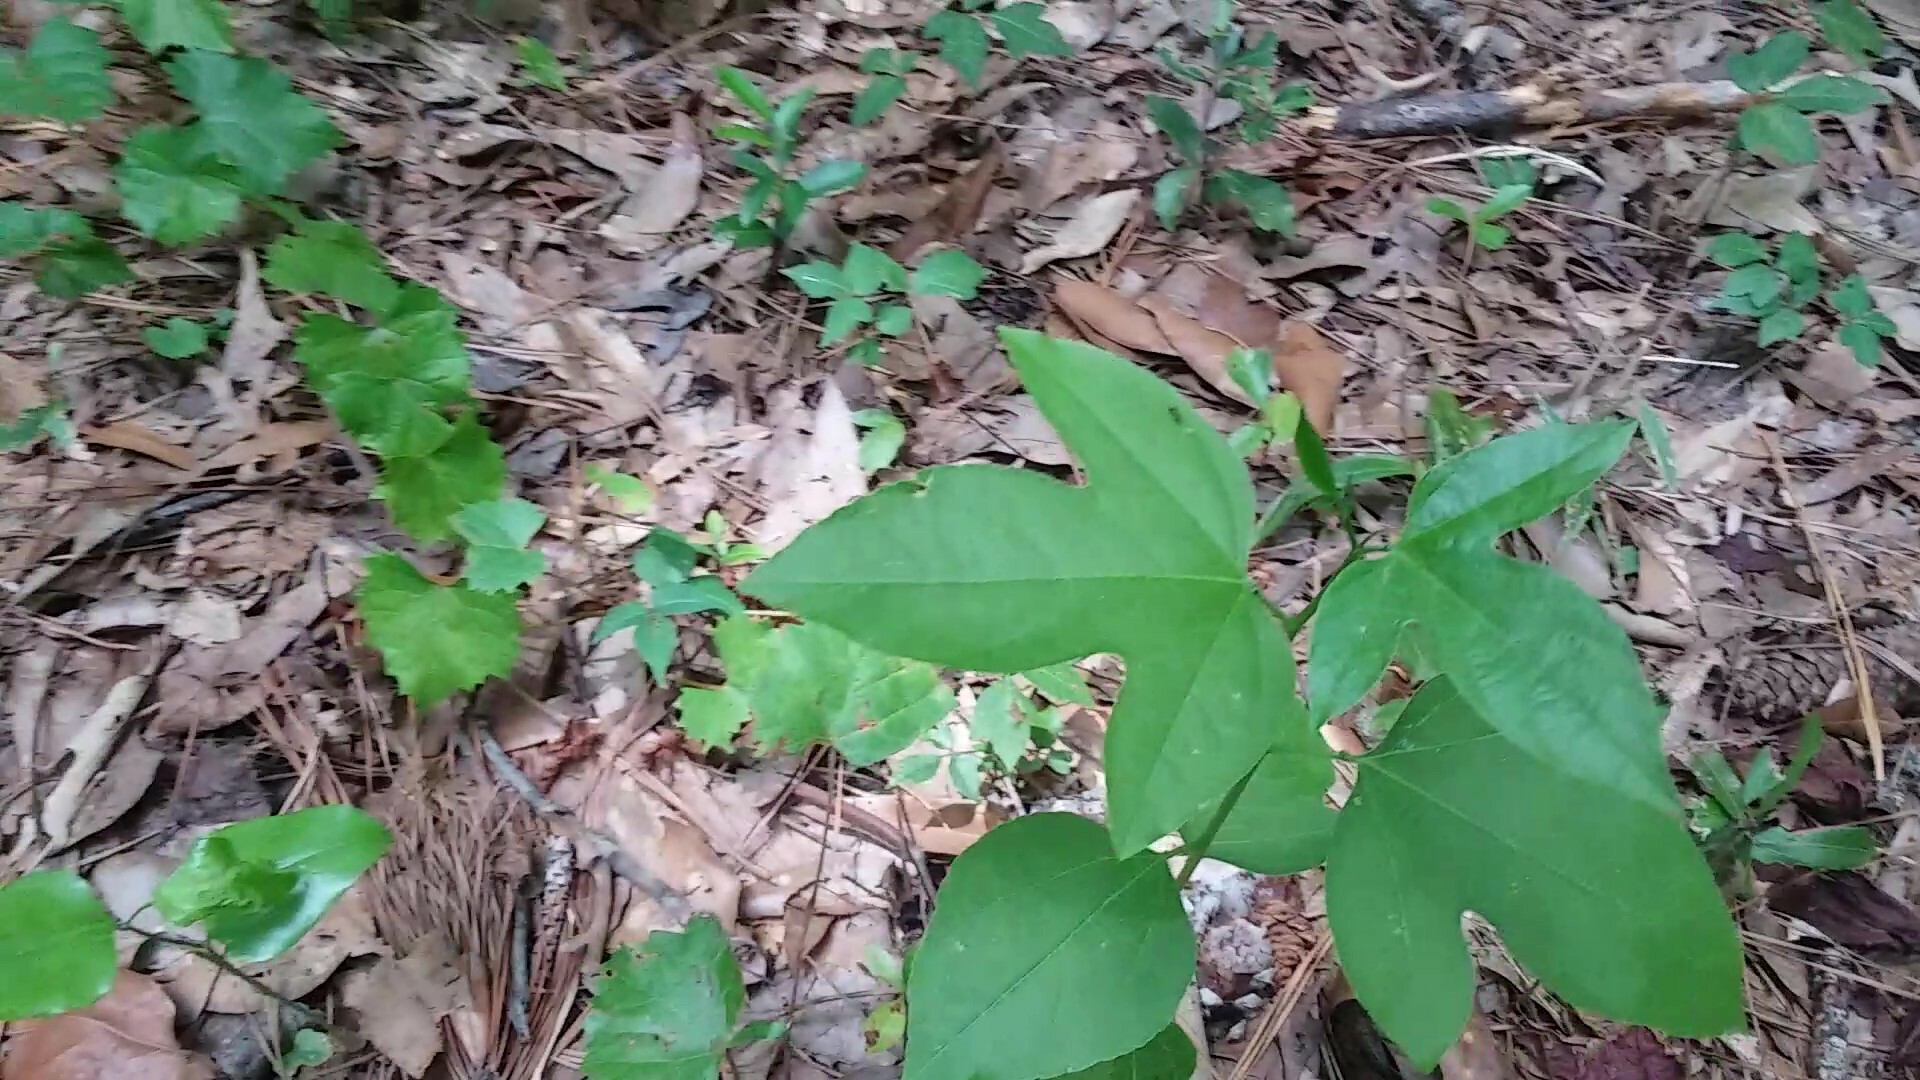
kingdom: Plantae
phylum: Tracheophyta
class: Magnoliopsida
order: Malpighiales
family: Passifloraceae
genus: Passiflora
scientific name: Passiflora incarnata
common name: Apricot-vine
